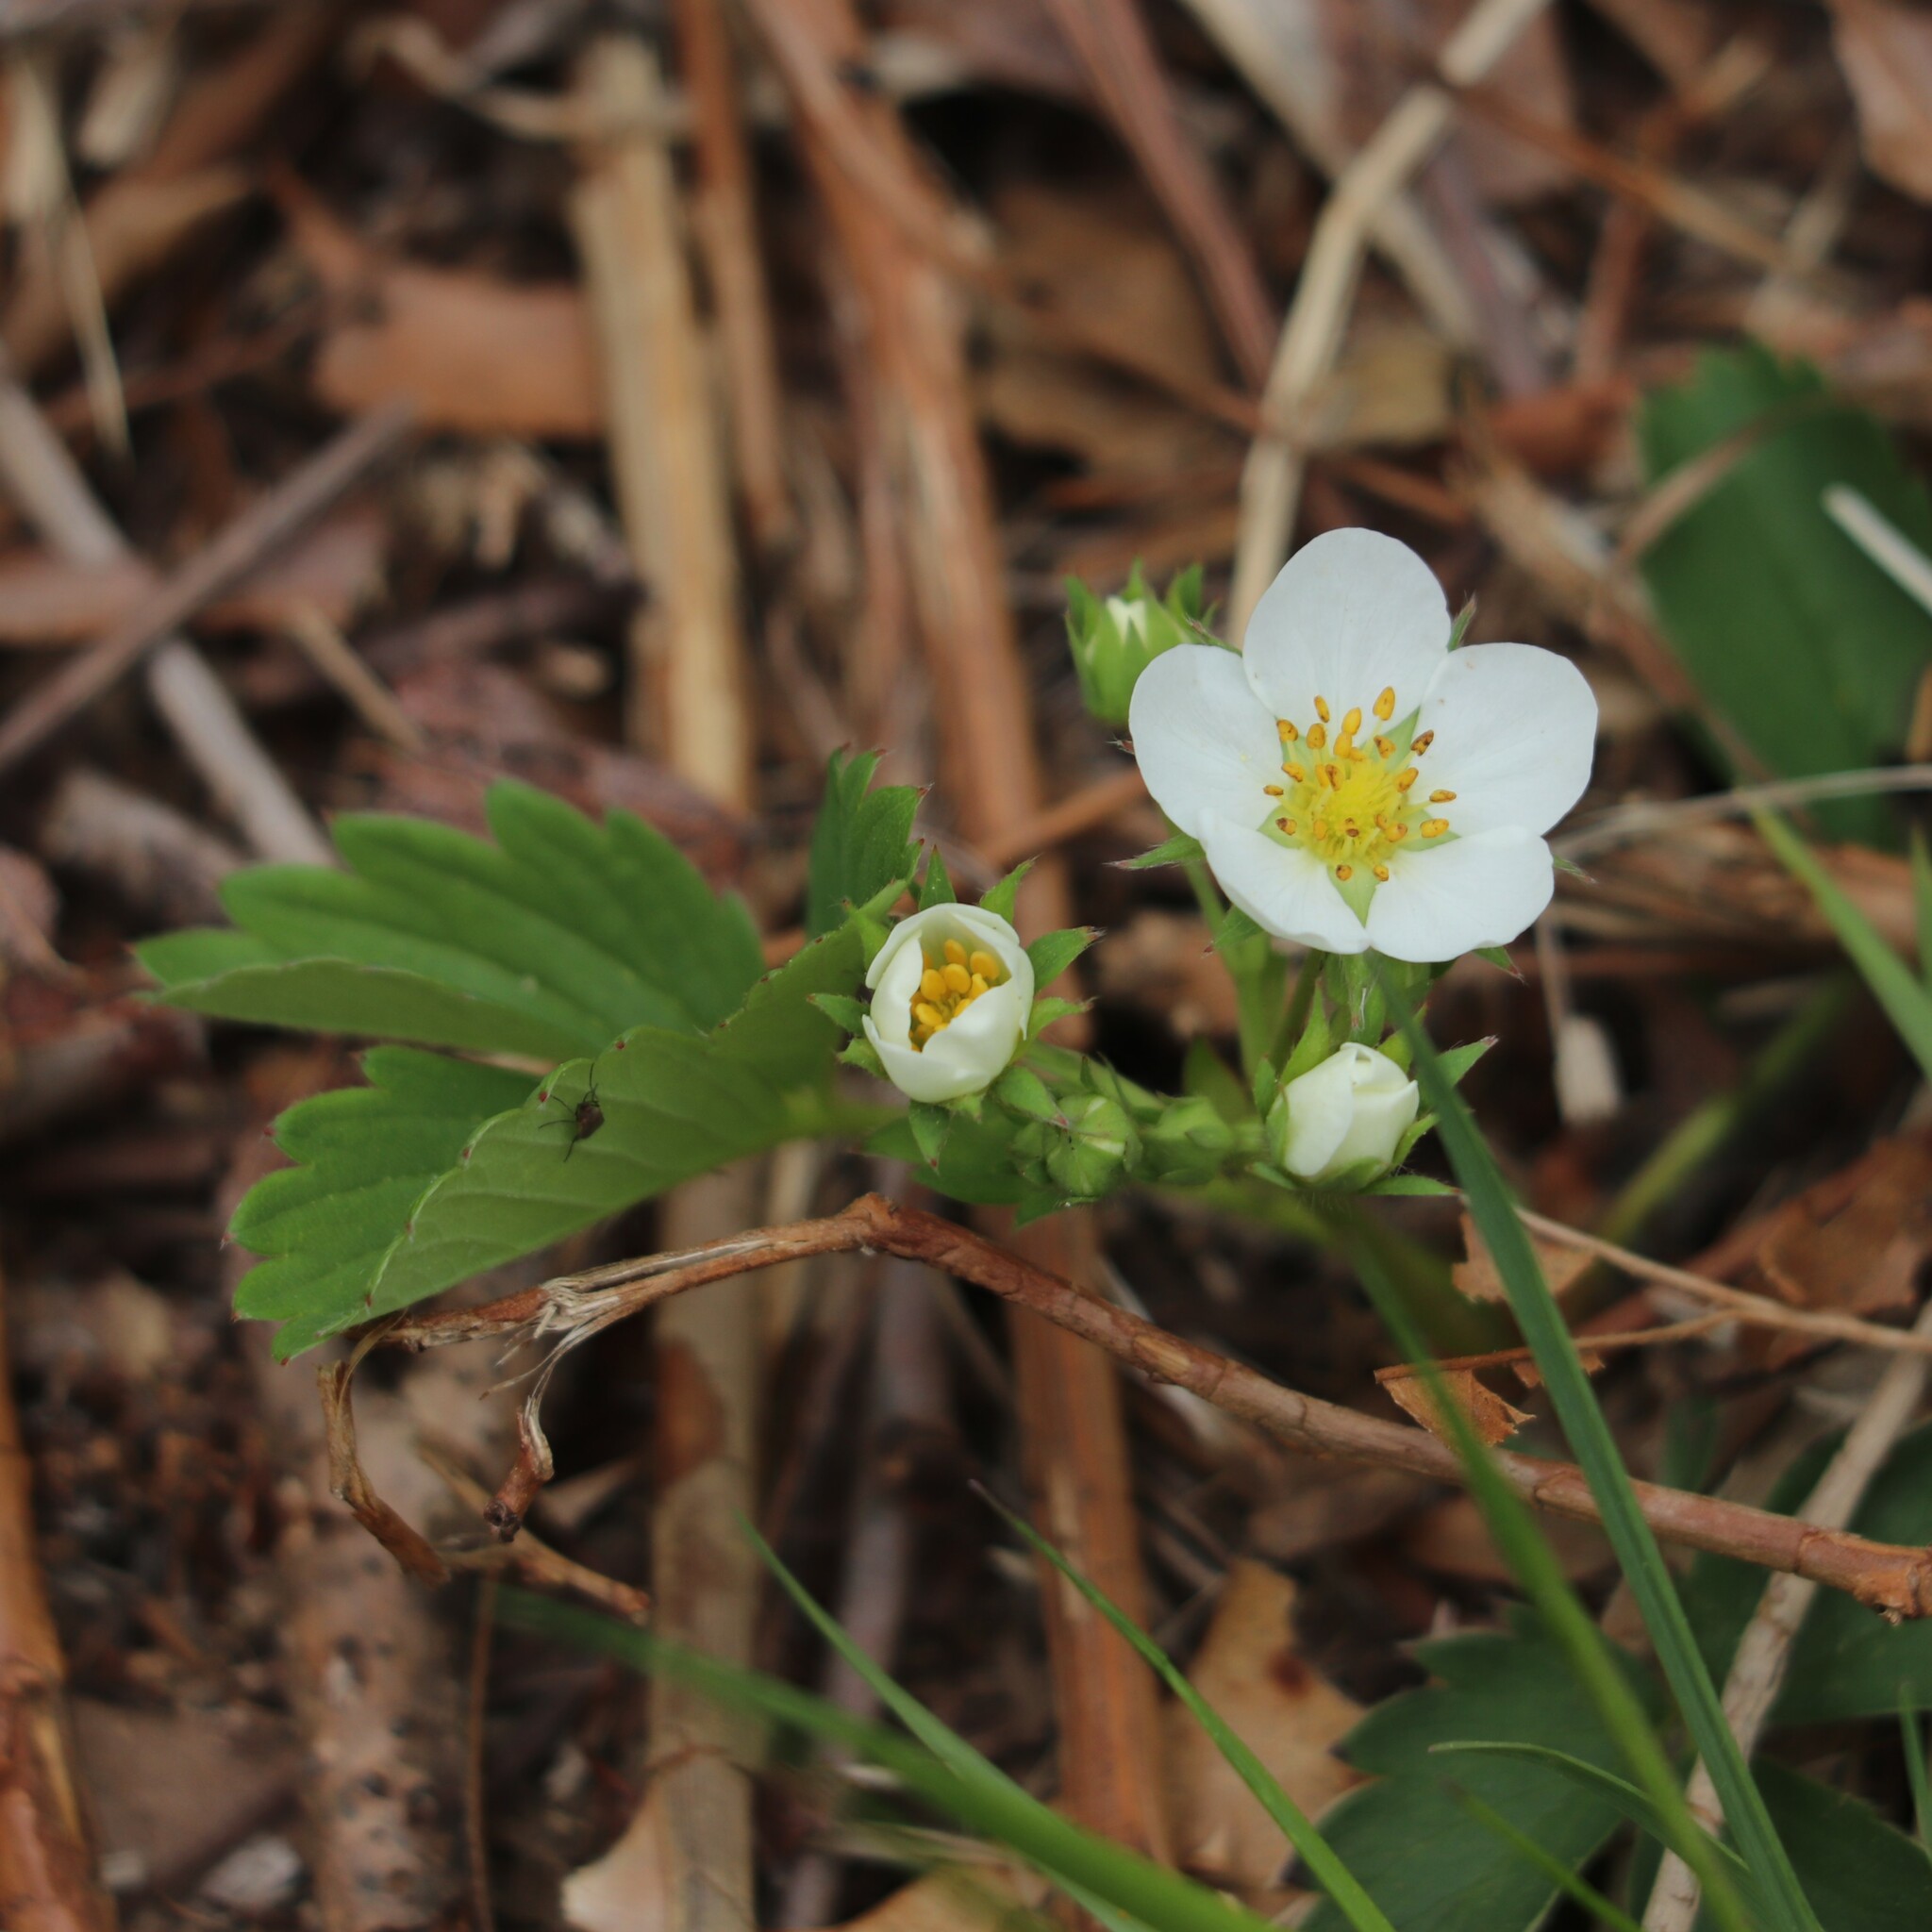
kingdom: Plantae
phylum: Tracheophyta
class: Magnoliopsida
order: Rosales
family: Rosaceae
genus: Fragaria
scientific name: Fragaria virginiana
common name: Thickleaved wild strawberry
